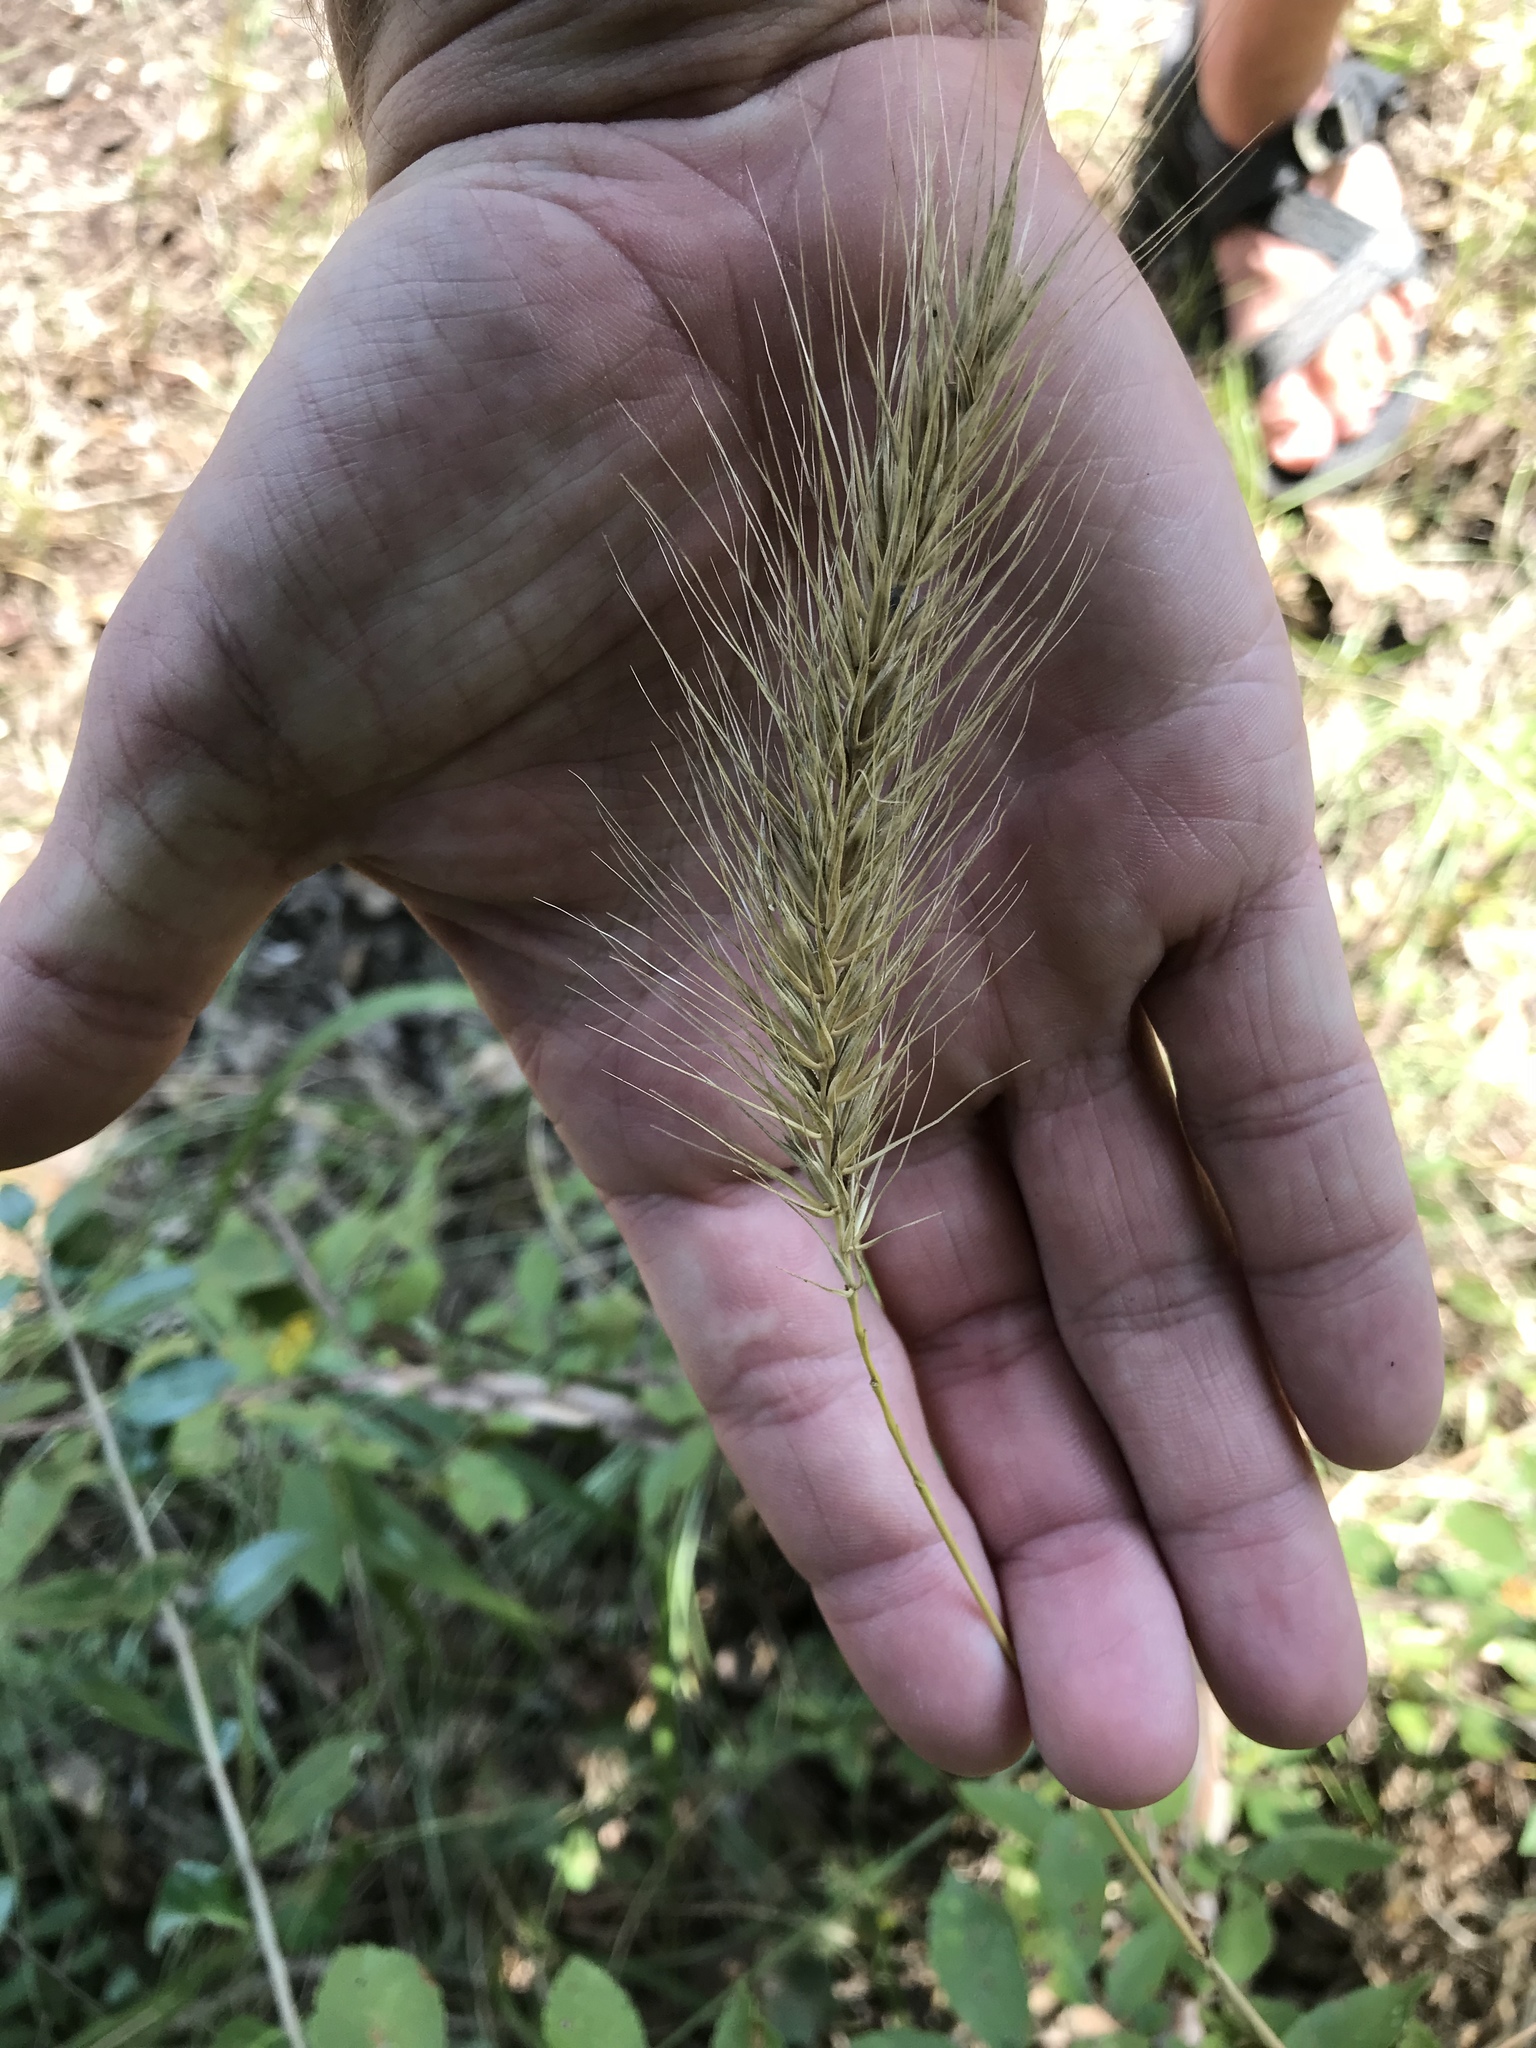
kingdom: Plantae
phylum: Tracheophyta
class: Liliopsida
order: Poales
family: Poaceae
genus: Elymus
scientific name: Elymus canadensis
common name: Canada wild rye
